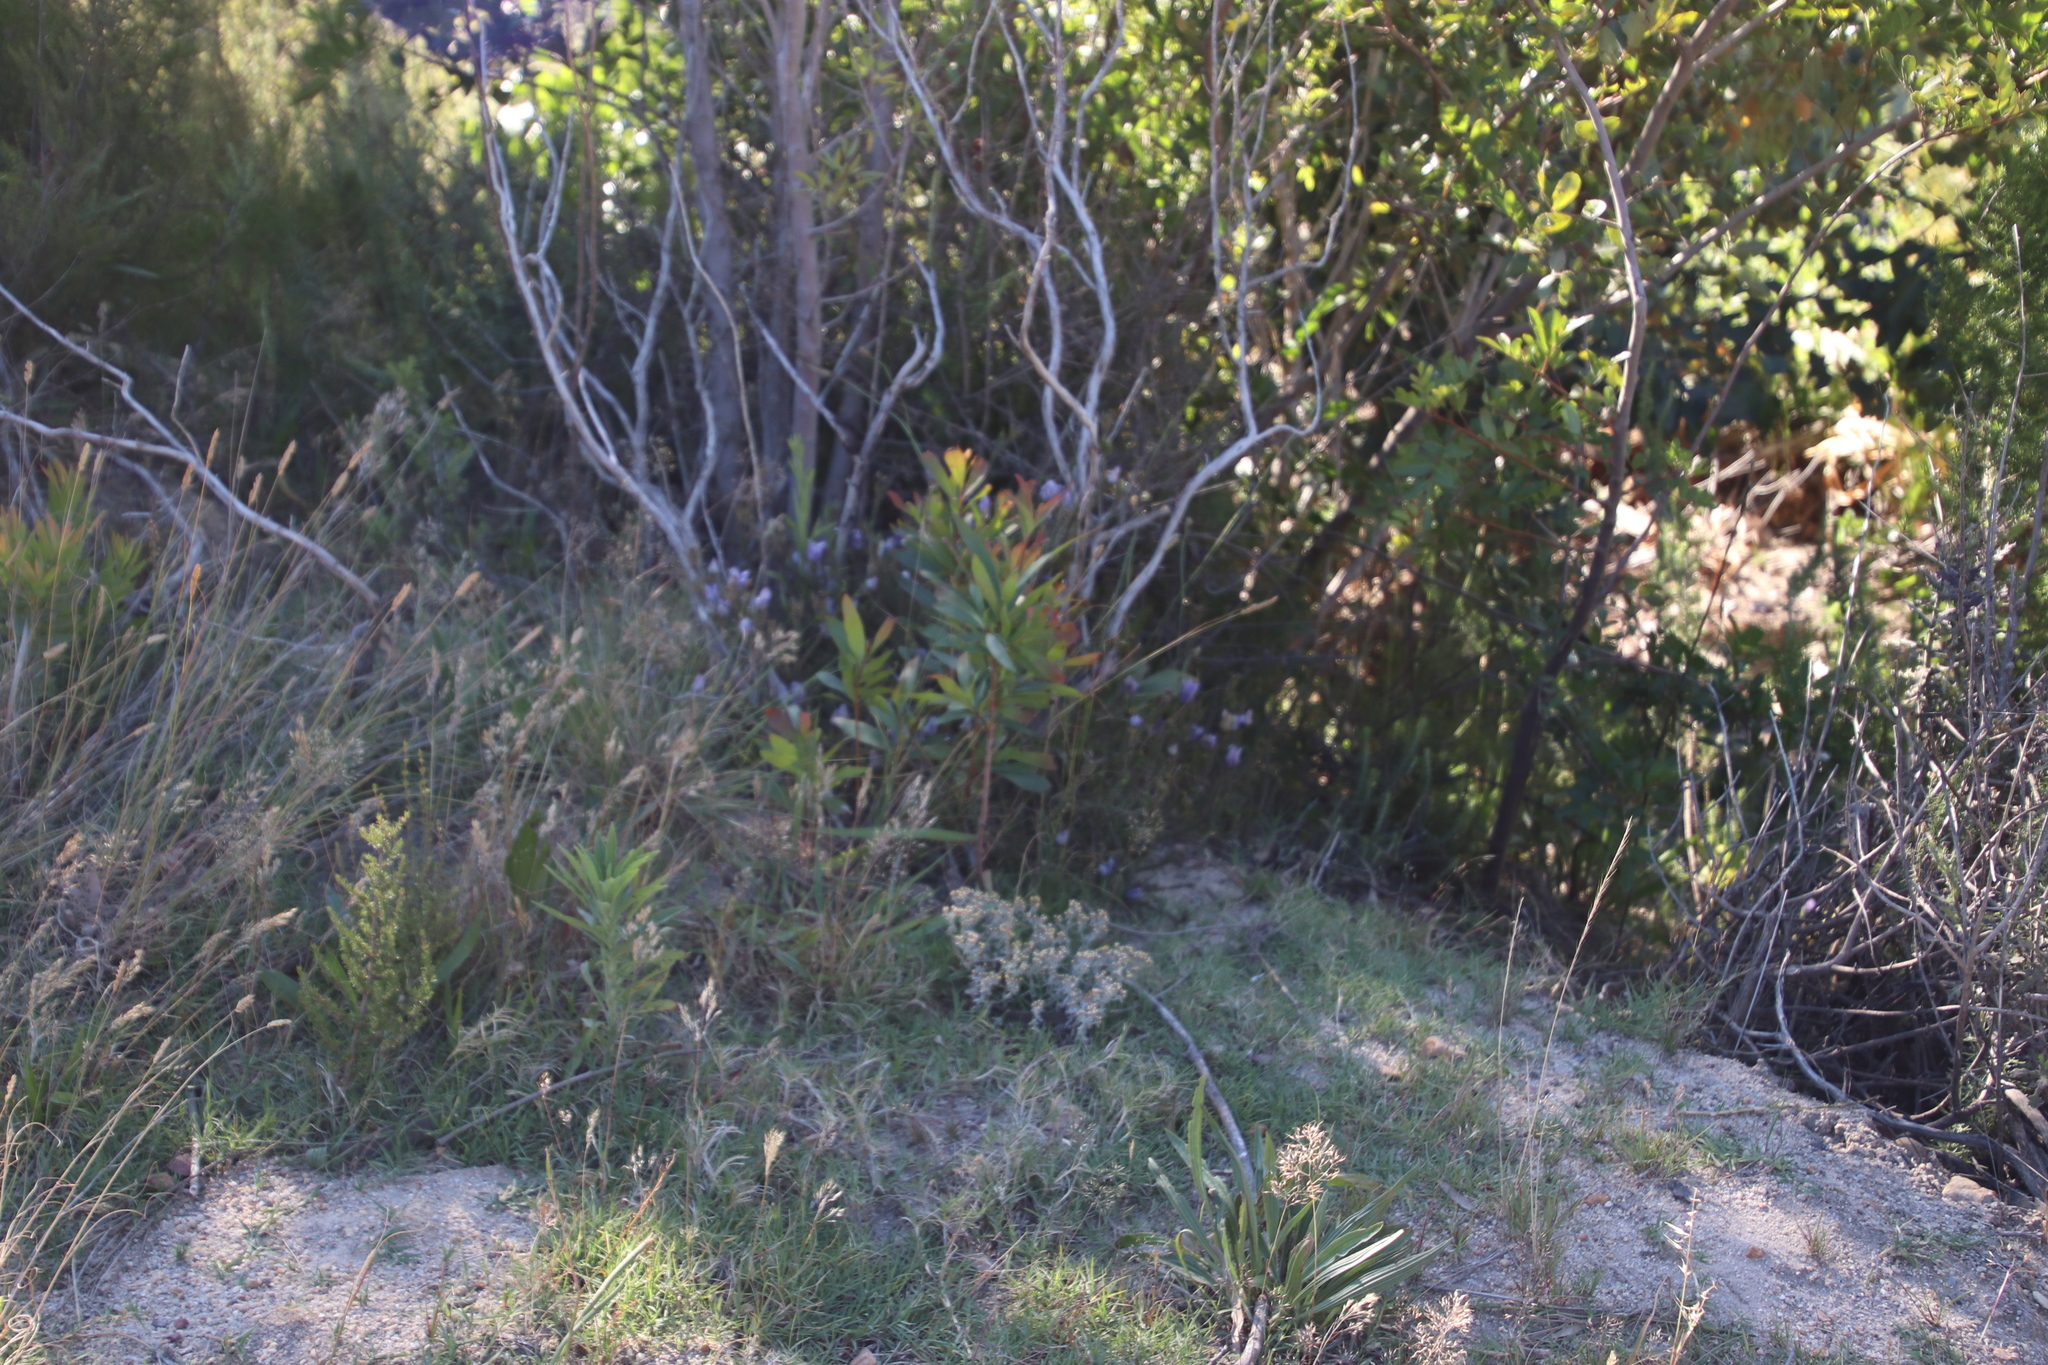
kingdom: Plantae
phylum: Tracheophyta
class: Magnoliopsida
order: Proteales
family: Proteaceae
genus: Hakea
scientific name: Hakea salicifolia
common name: Willow hakea
